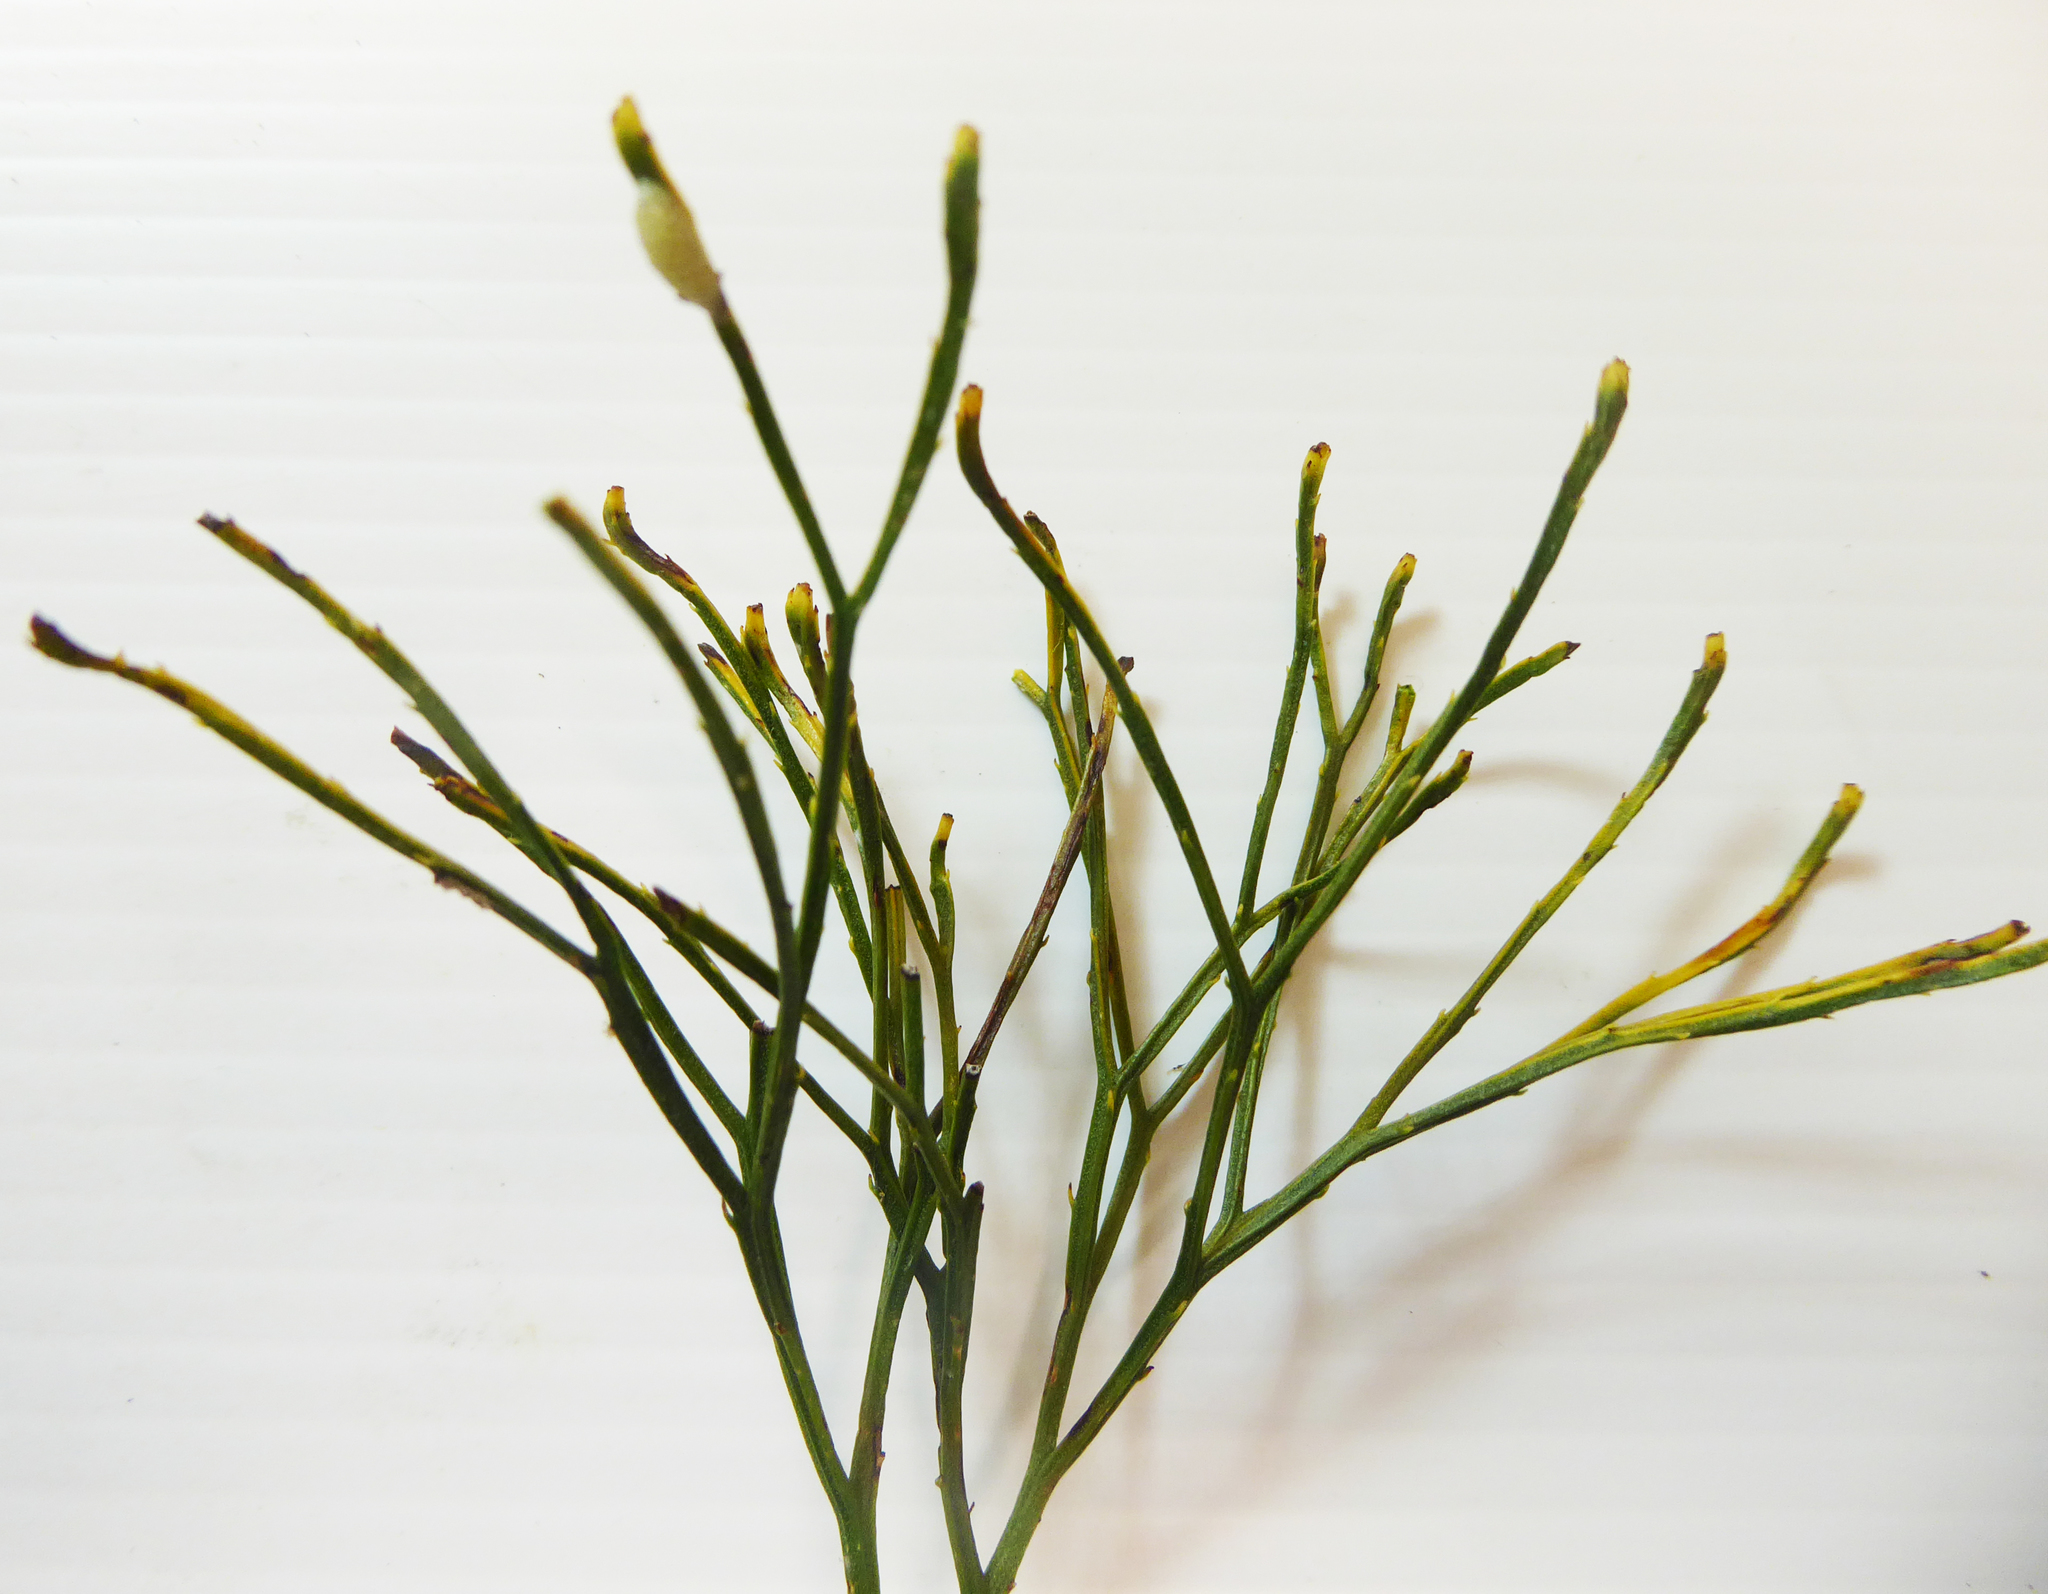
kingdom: Plantae
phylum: Tracheophyta
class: Polypodiopsida
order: Psilotales
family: Psilotaceae
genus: Psilotum
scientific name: Psilotum nudum
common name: Skeleton fork fern
